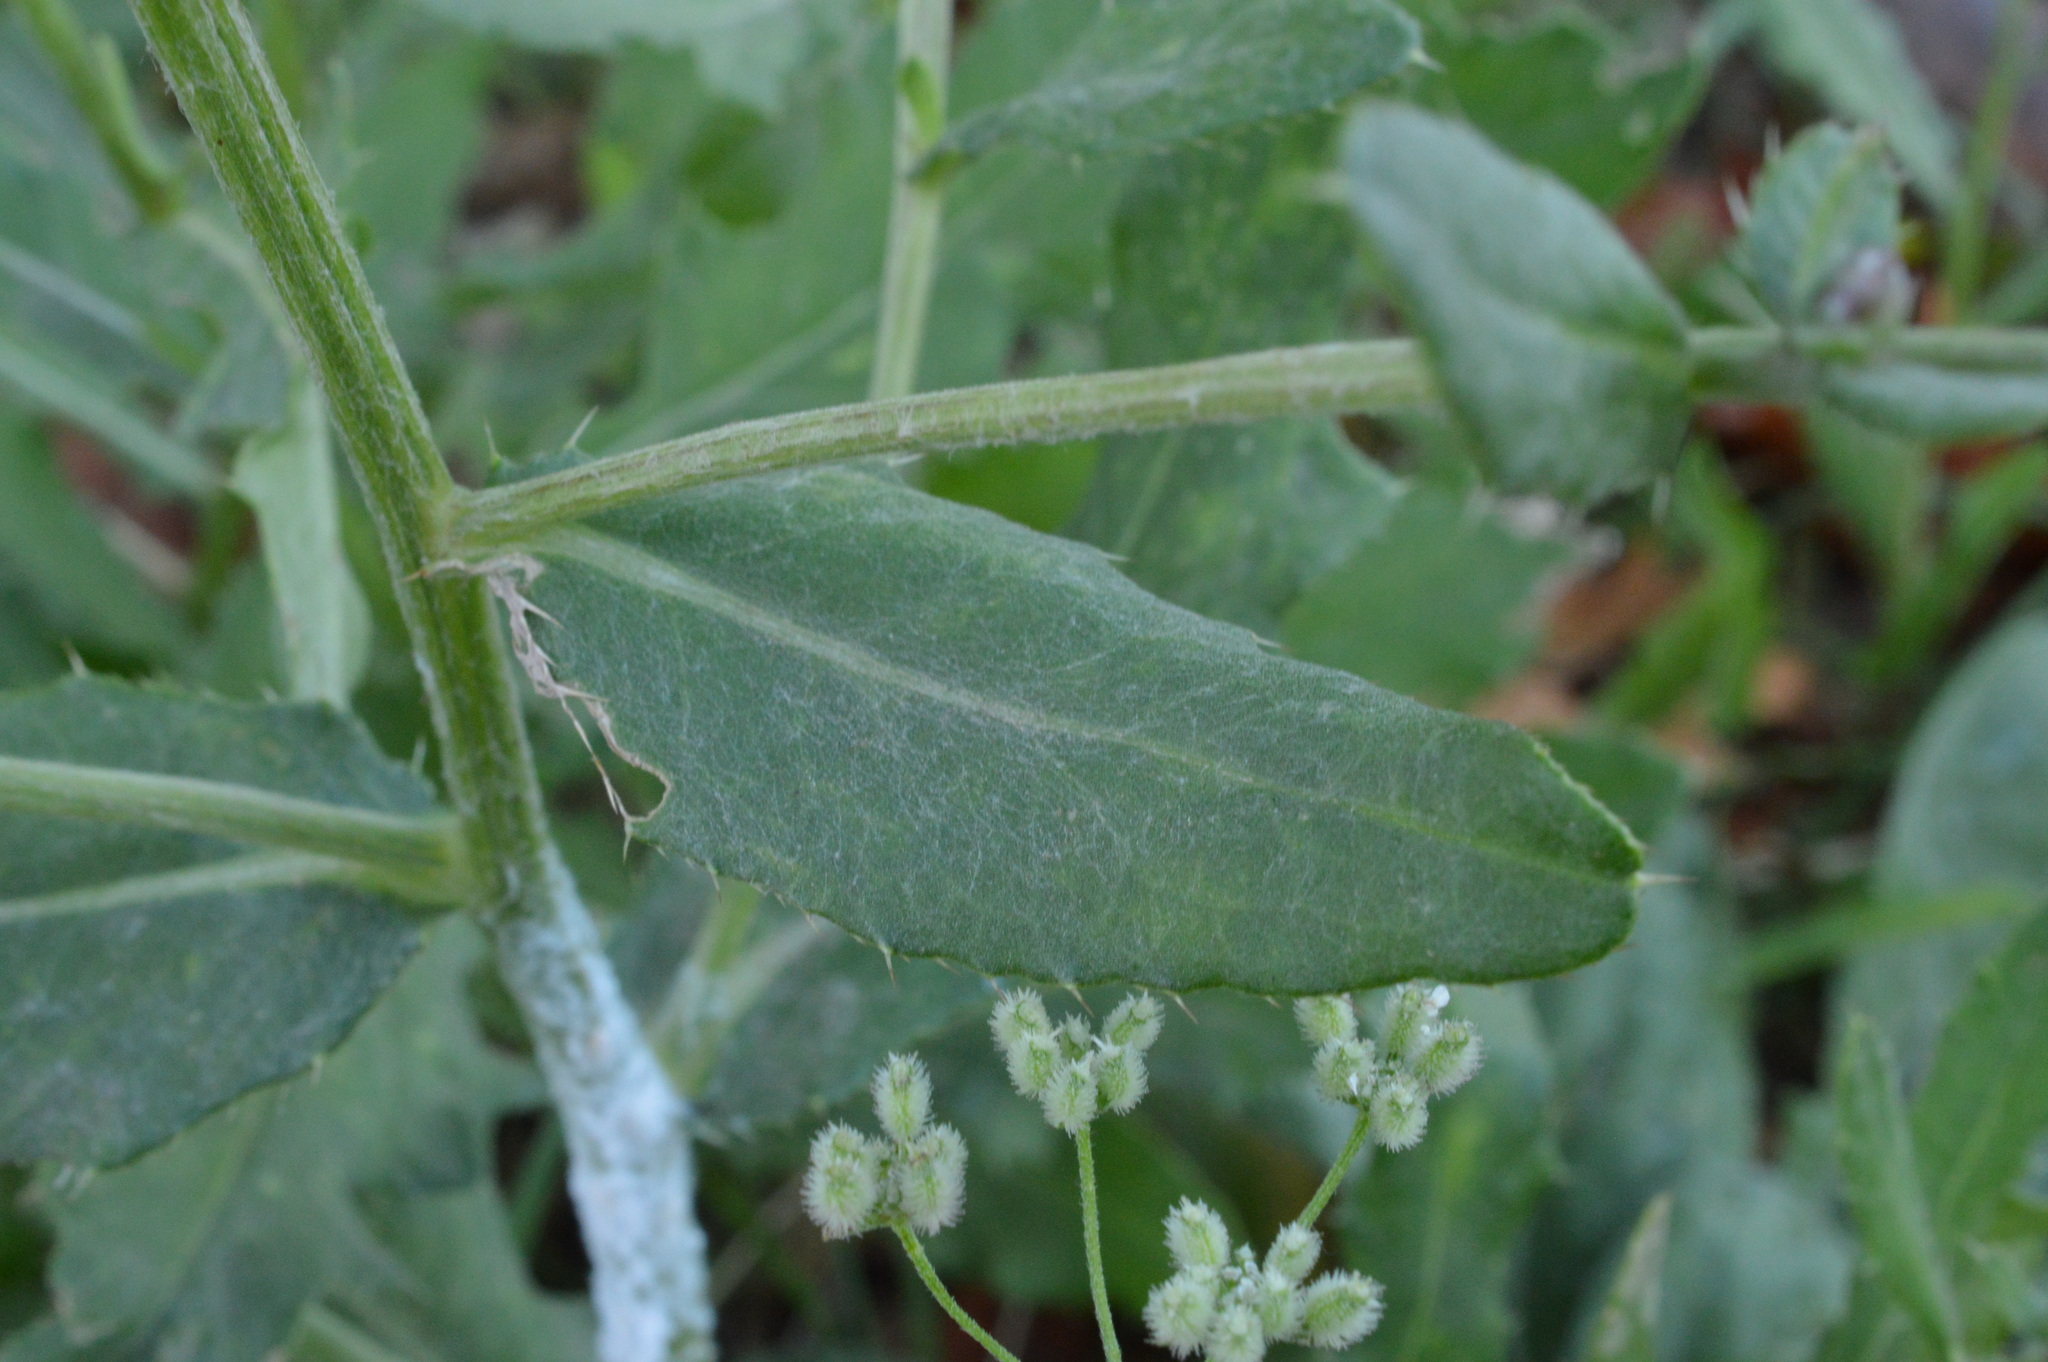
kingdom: Plantae
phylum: Tracheophyta
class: Magnoliopsida
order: Asterales
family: Asteraceae
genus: Cirsium
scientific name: Cirsium arvense
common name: Creeping thistle
